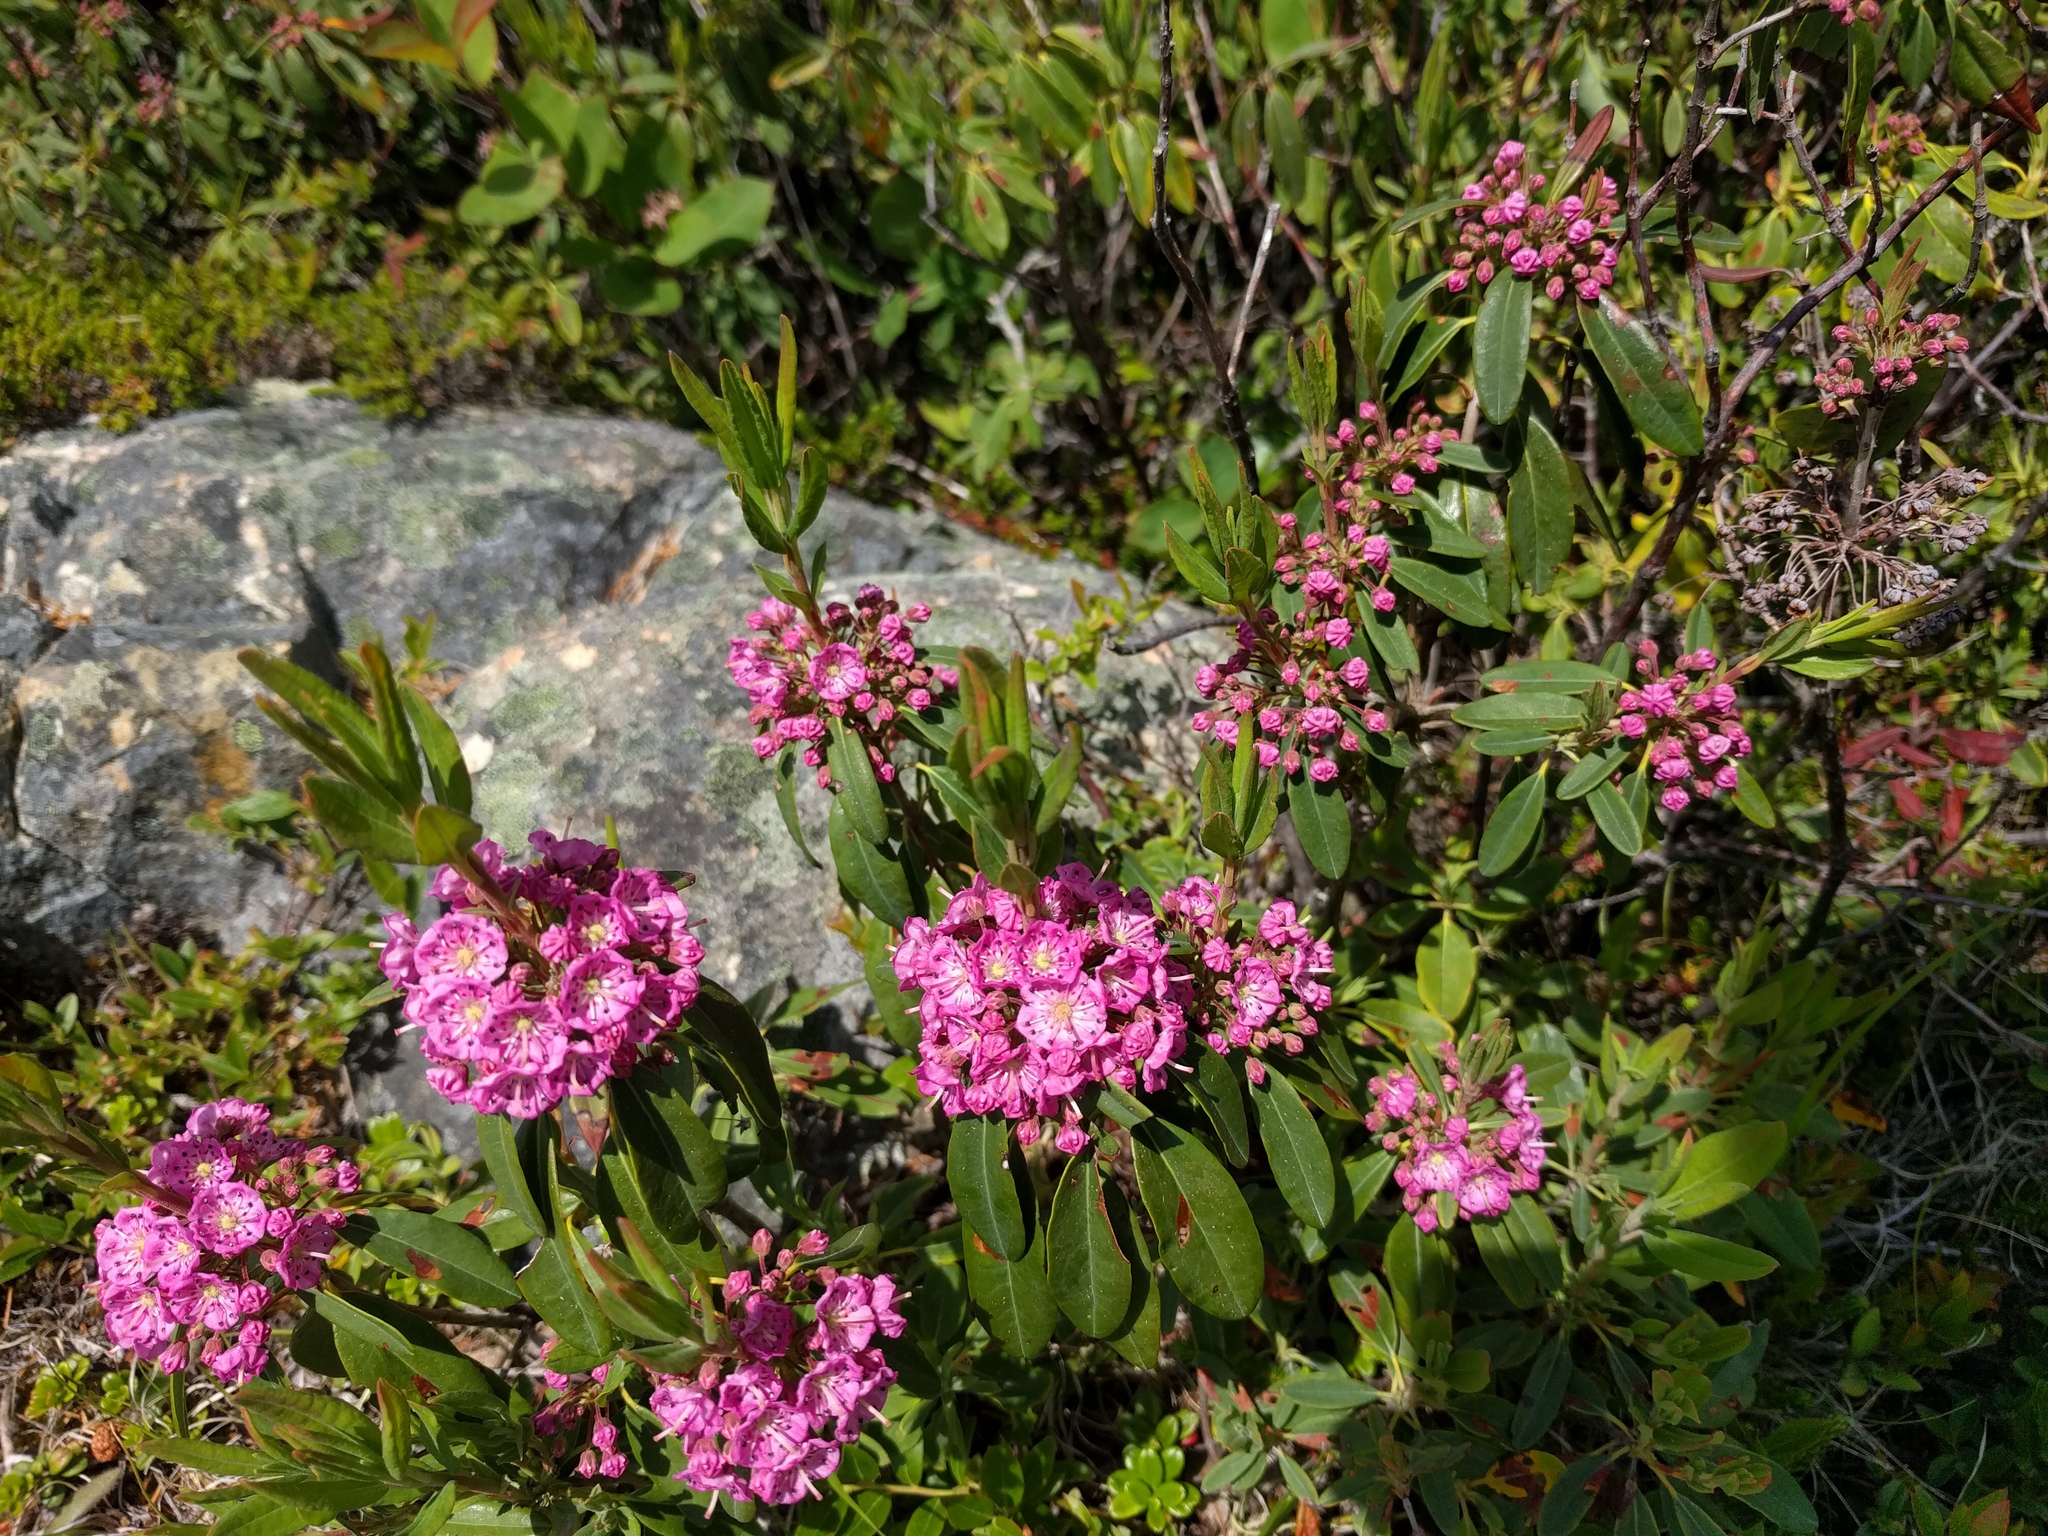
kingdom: Plantae
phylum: Tracheophyta
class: Magnoliopsida
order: Ericales
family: Ericaceae
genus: Kalmia
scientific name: Kalmia angustifolia
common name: Sheep-laurel
